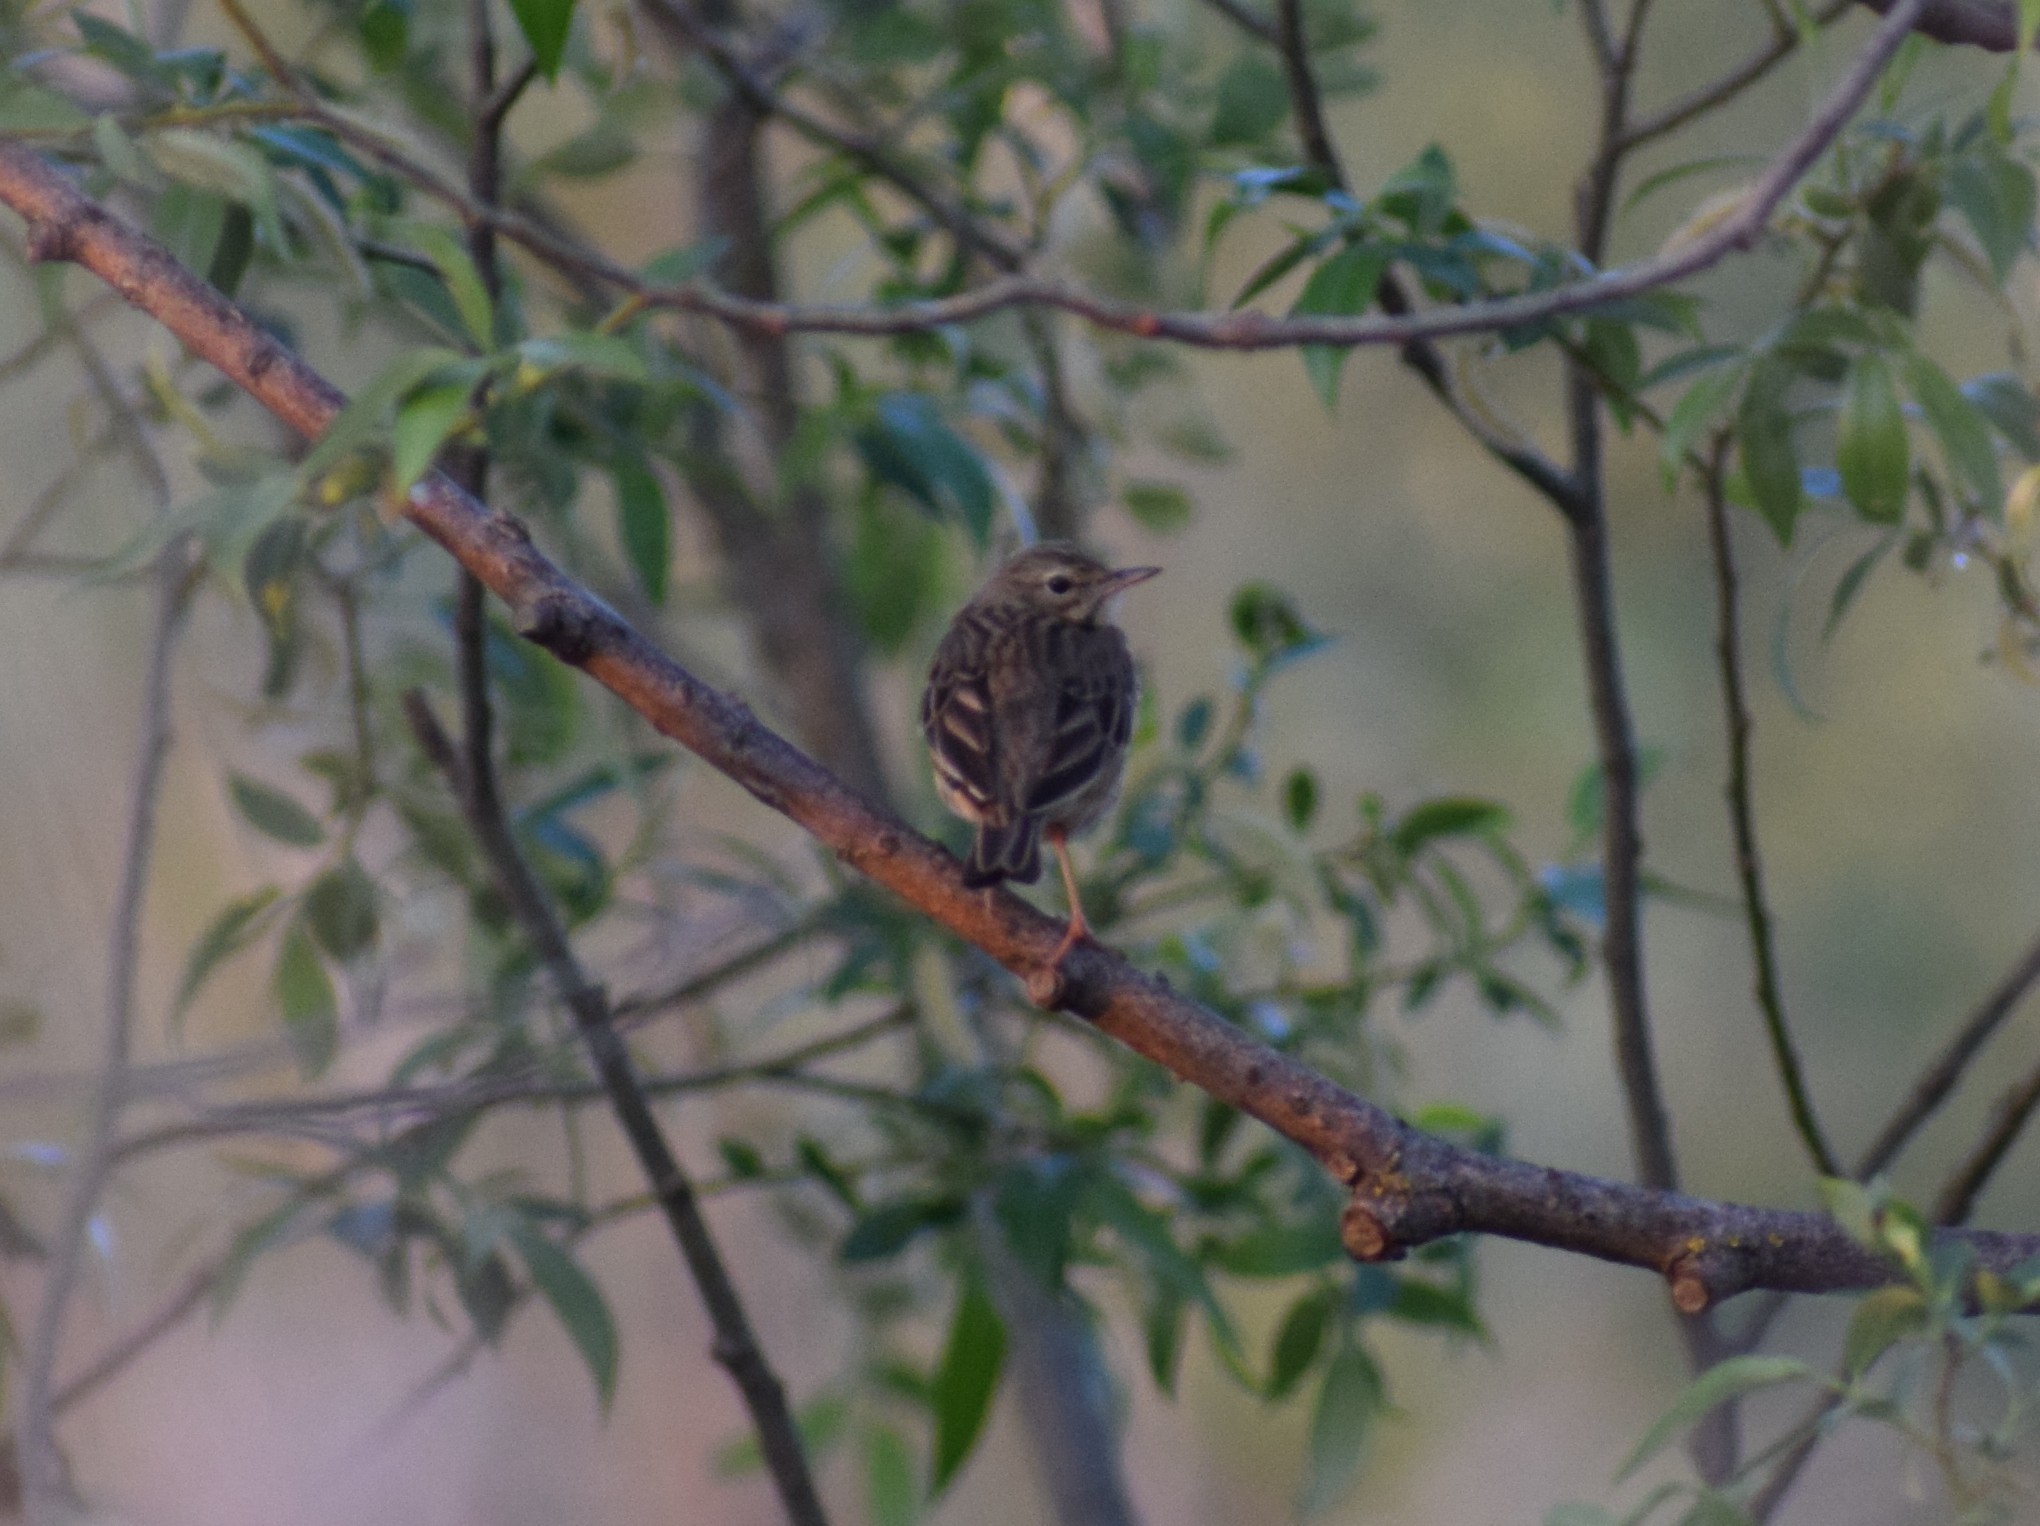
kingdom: Animalia
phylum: Chordata
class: Aves
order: Passeriformes
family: Motacillidae
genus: Anthus
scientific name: Anthus trivialis
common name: Tree pipit
